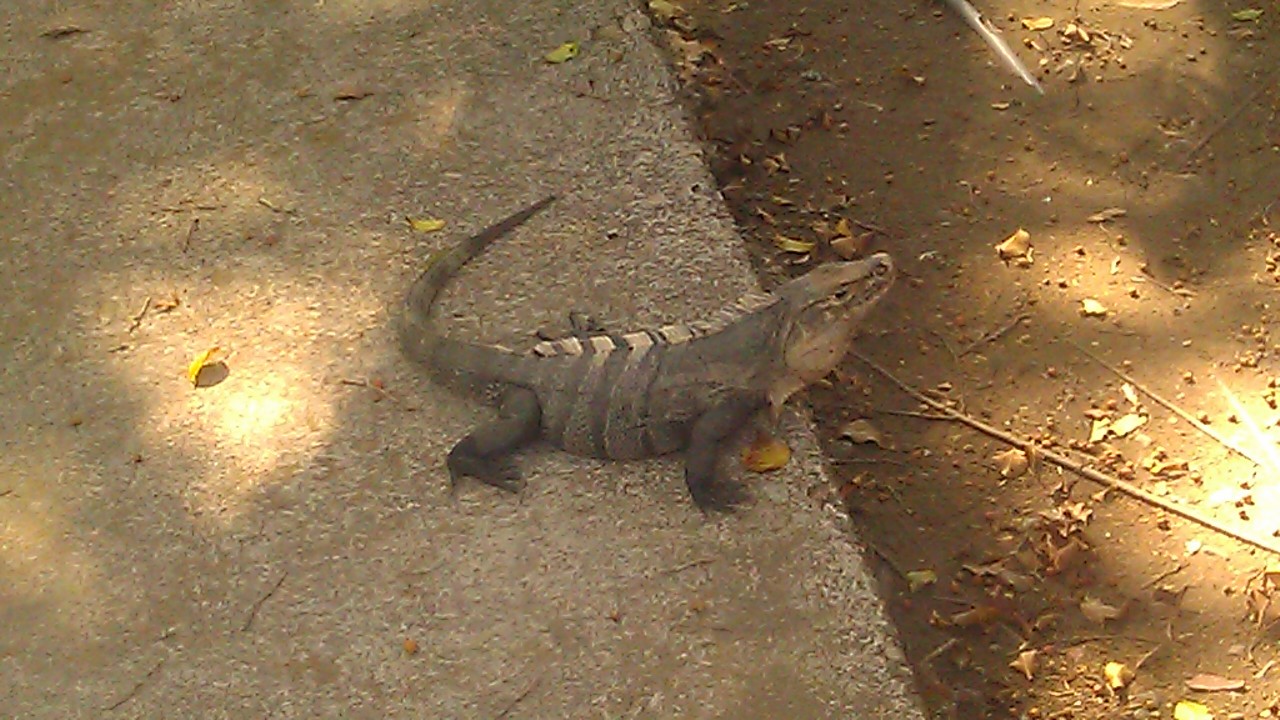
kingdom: Animalia
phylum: Chordata
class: Squamata
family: Iguanidae
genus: Ctenosaura
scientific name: Ctenosaura similis
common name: Black spiny-tailed iguana
